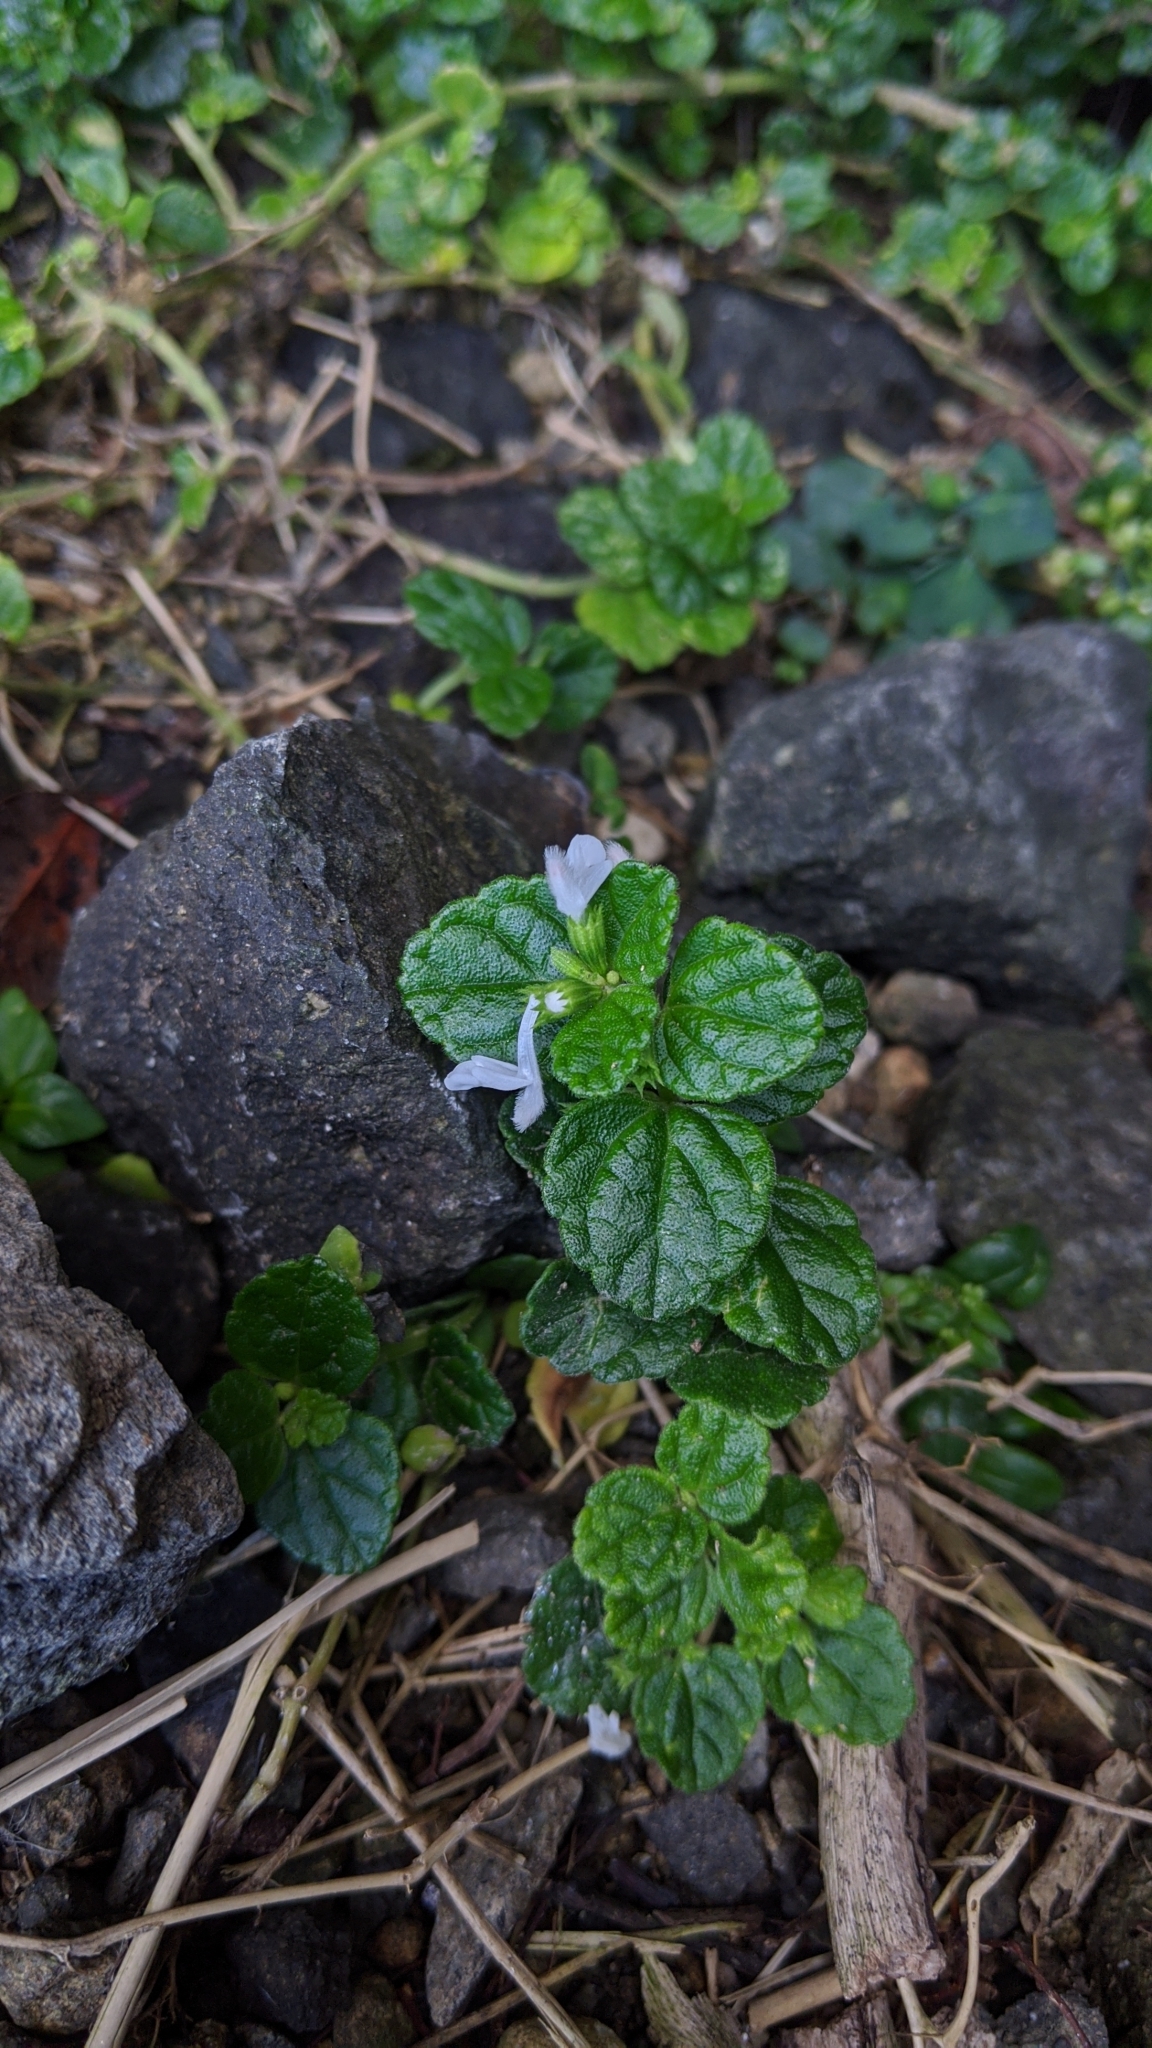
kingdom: Plantae
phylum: Tracheophyta
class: Magnoliopsida
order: Lamiales
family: Lamiaceae
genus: Leucas
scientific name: Leucas chinensis
